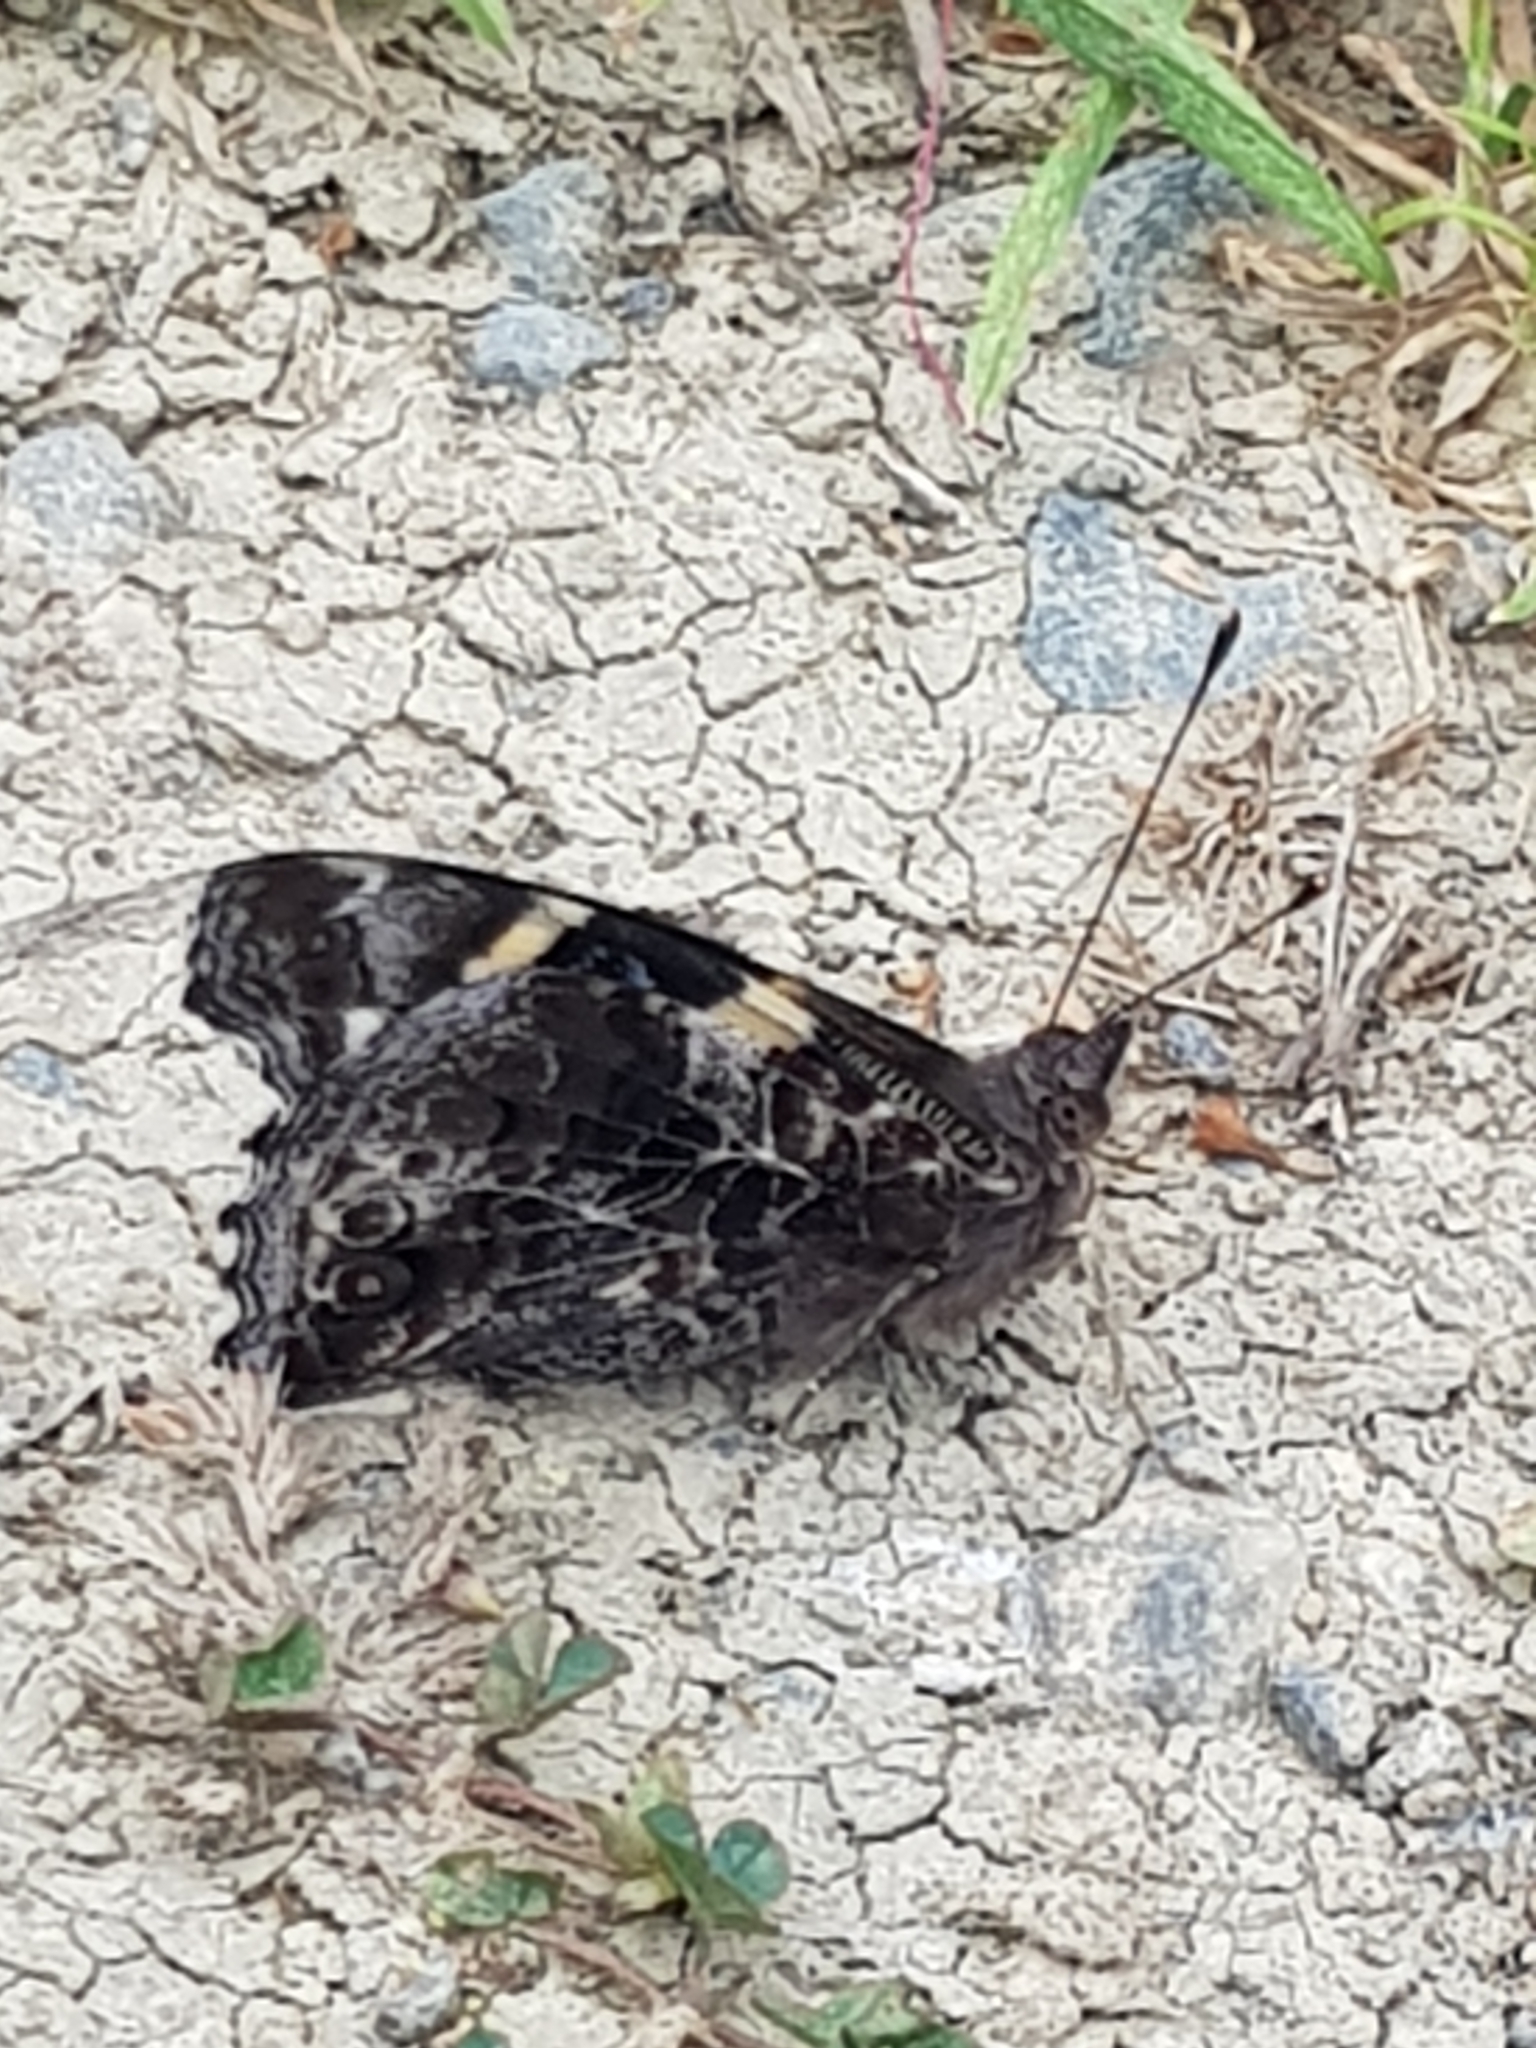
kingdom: Animalia
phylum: Arthropoda
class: Insecta
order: Lepidoptera
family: Nymphalidae
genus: Vanessa
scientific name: Vanessa itea
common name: Yellow admiral
